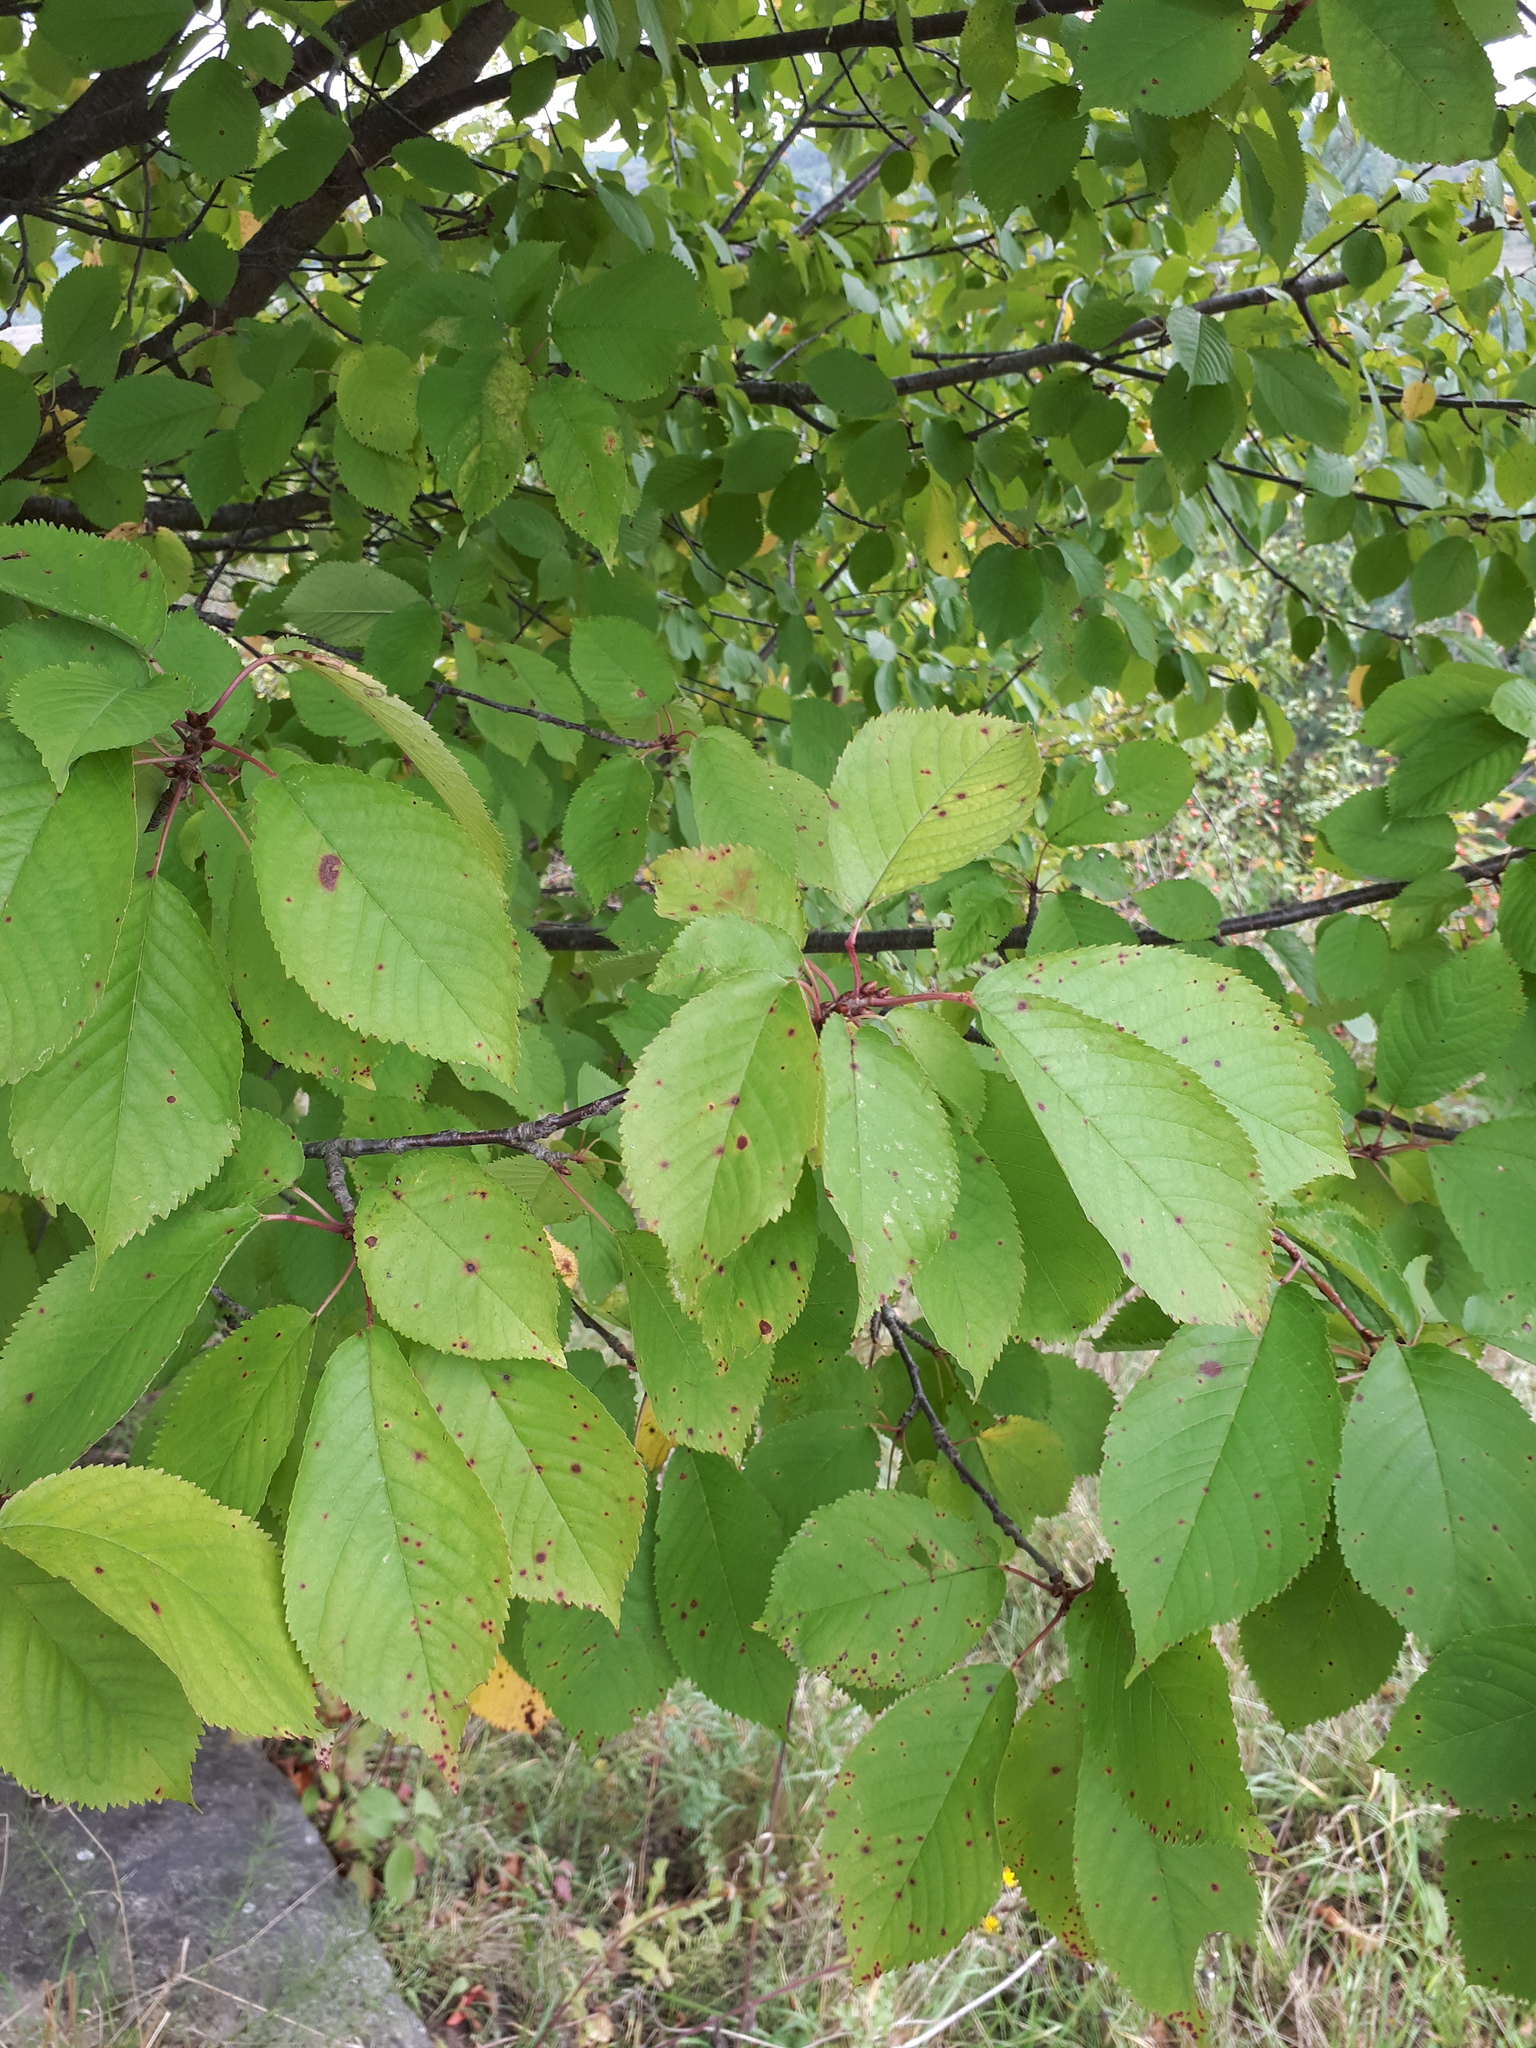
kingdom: Plantae
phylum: Tracheophyta
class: Magnoliopsida
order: Rosales
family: Rosaceae
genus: Prunus
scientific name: Prunus avium
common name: Sweet cherry
